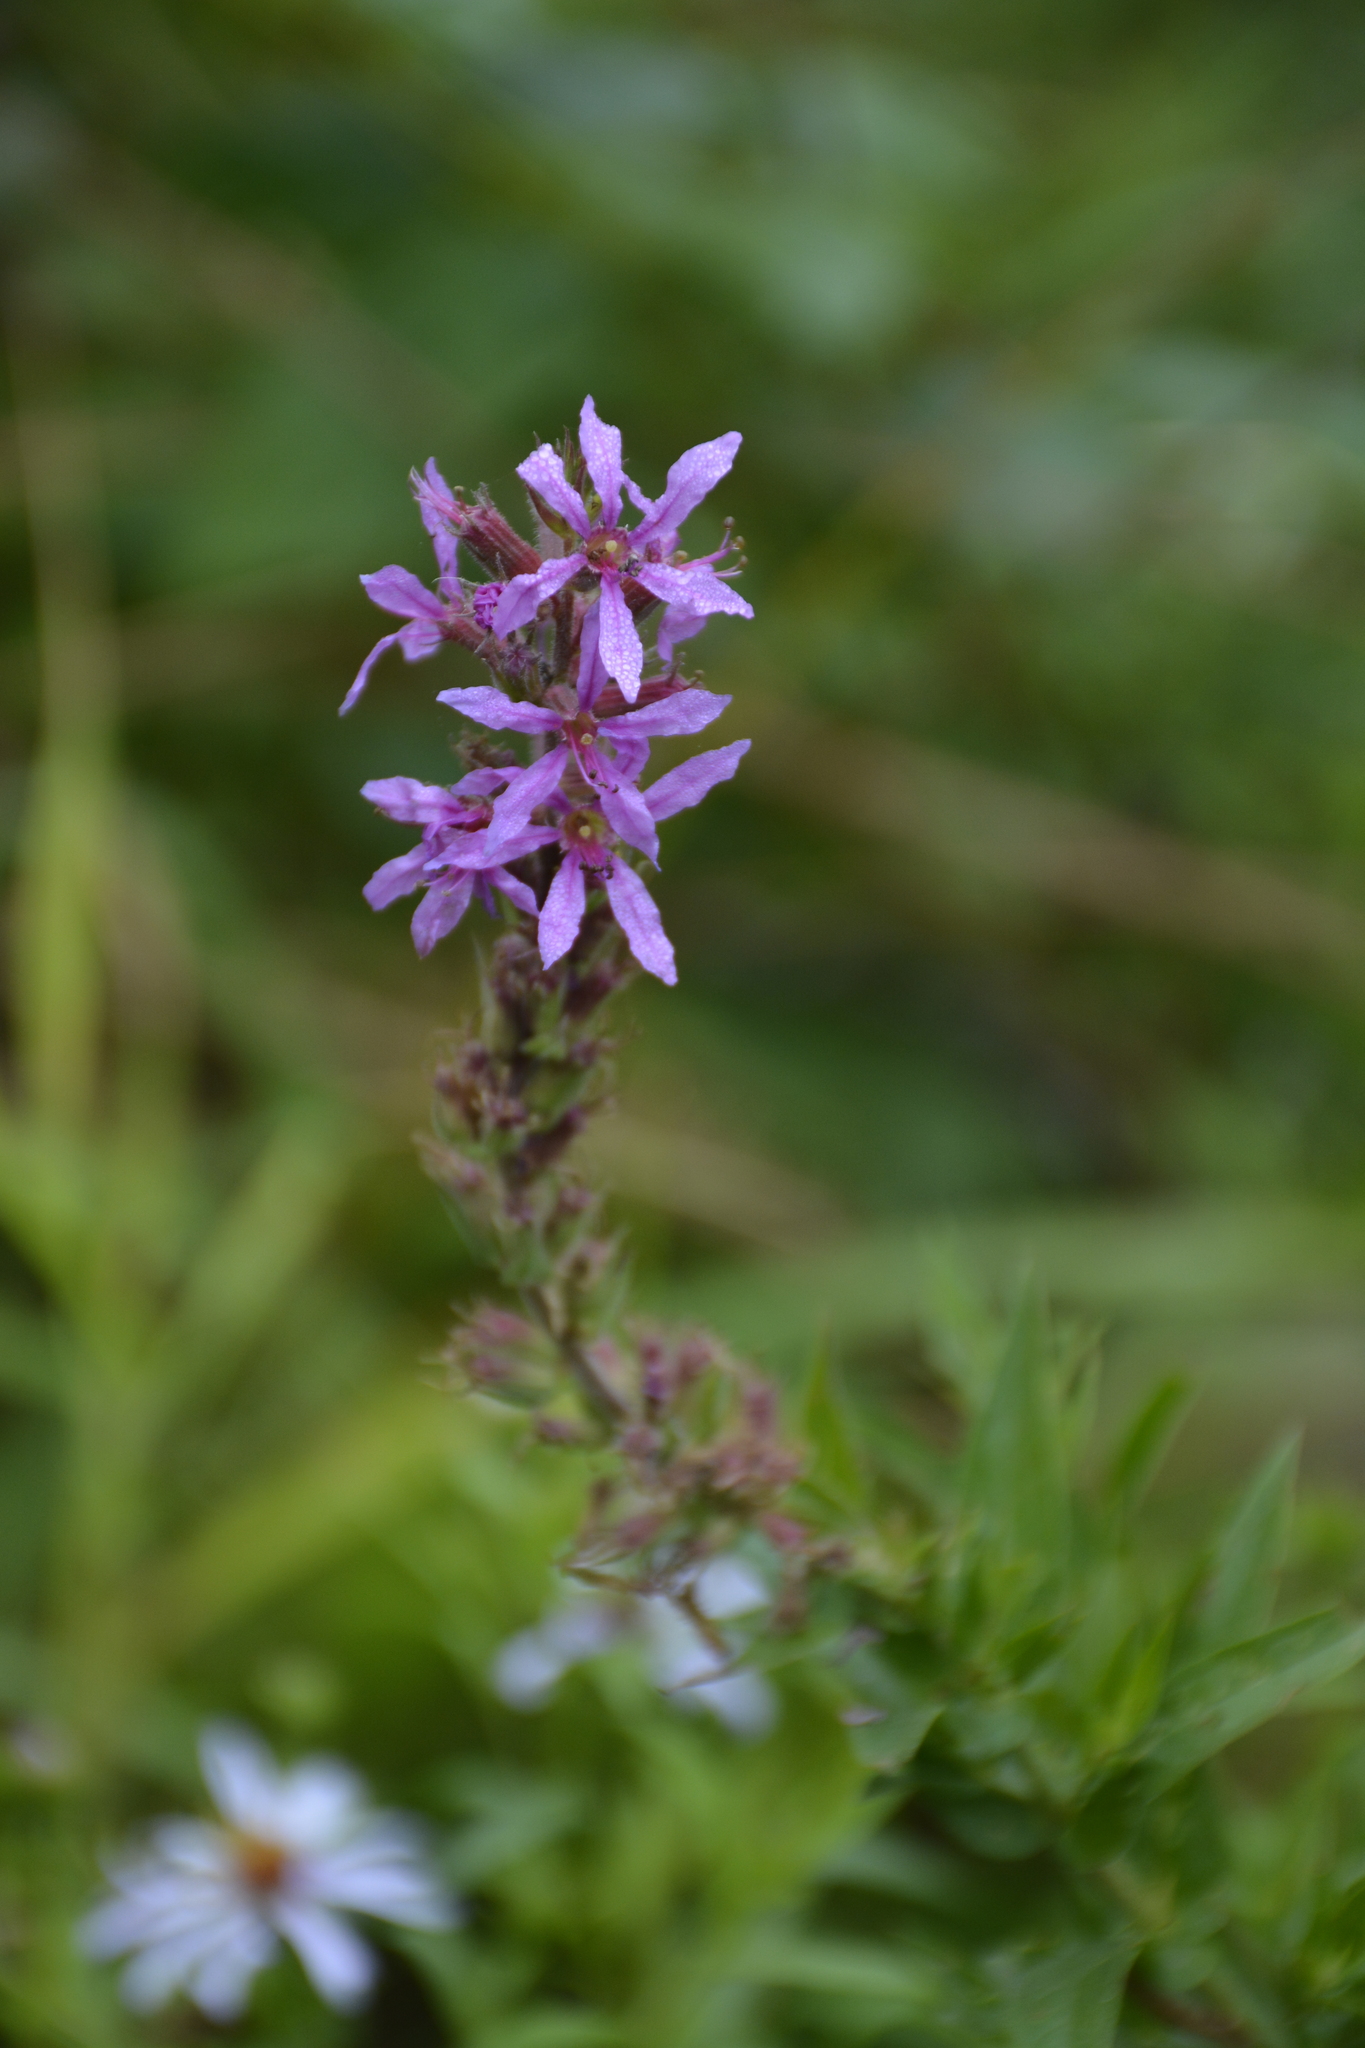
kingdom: Plantae
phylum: Tracheophyta
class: Magnoliopsida
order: Myrtales
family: Lythraceae
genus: Lythrum
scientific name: Lythrum salicaria
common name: Purple loosestrife
